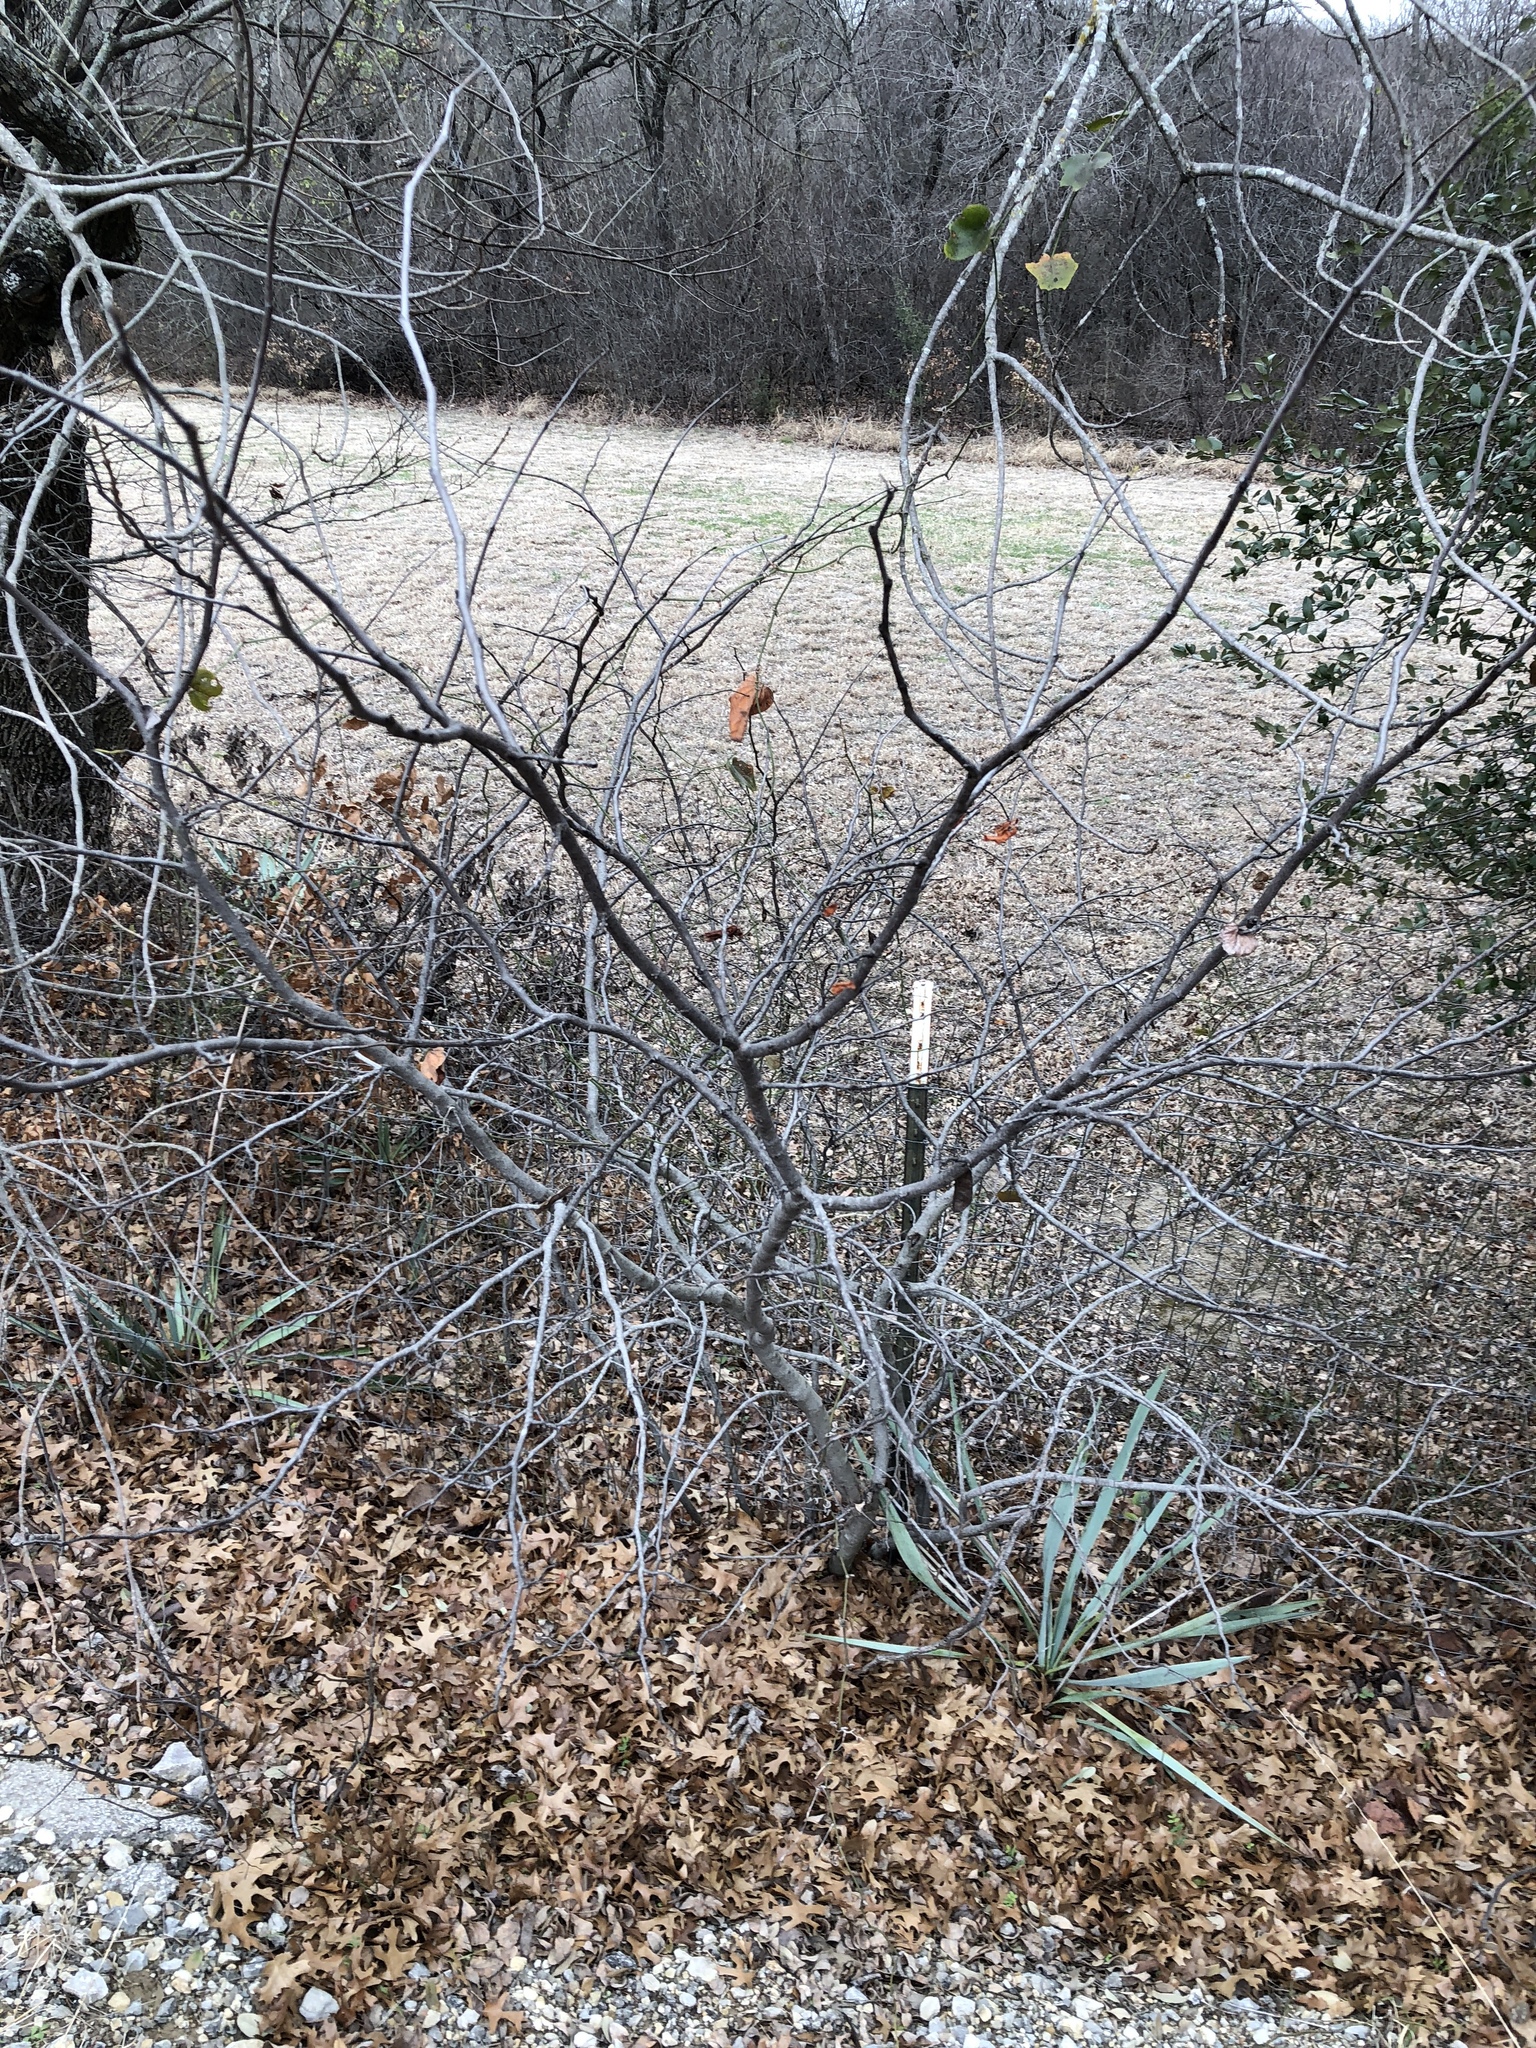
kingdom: Plantae
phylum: Tracheophyta
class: Magnoliopsida
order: Fabales
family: Fabaceae
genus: Cercis
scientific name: Cercis canadensis
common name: Eastern redbud
